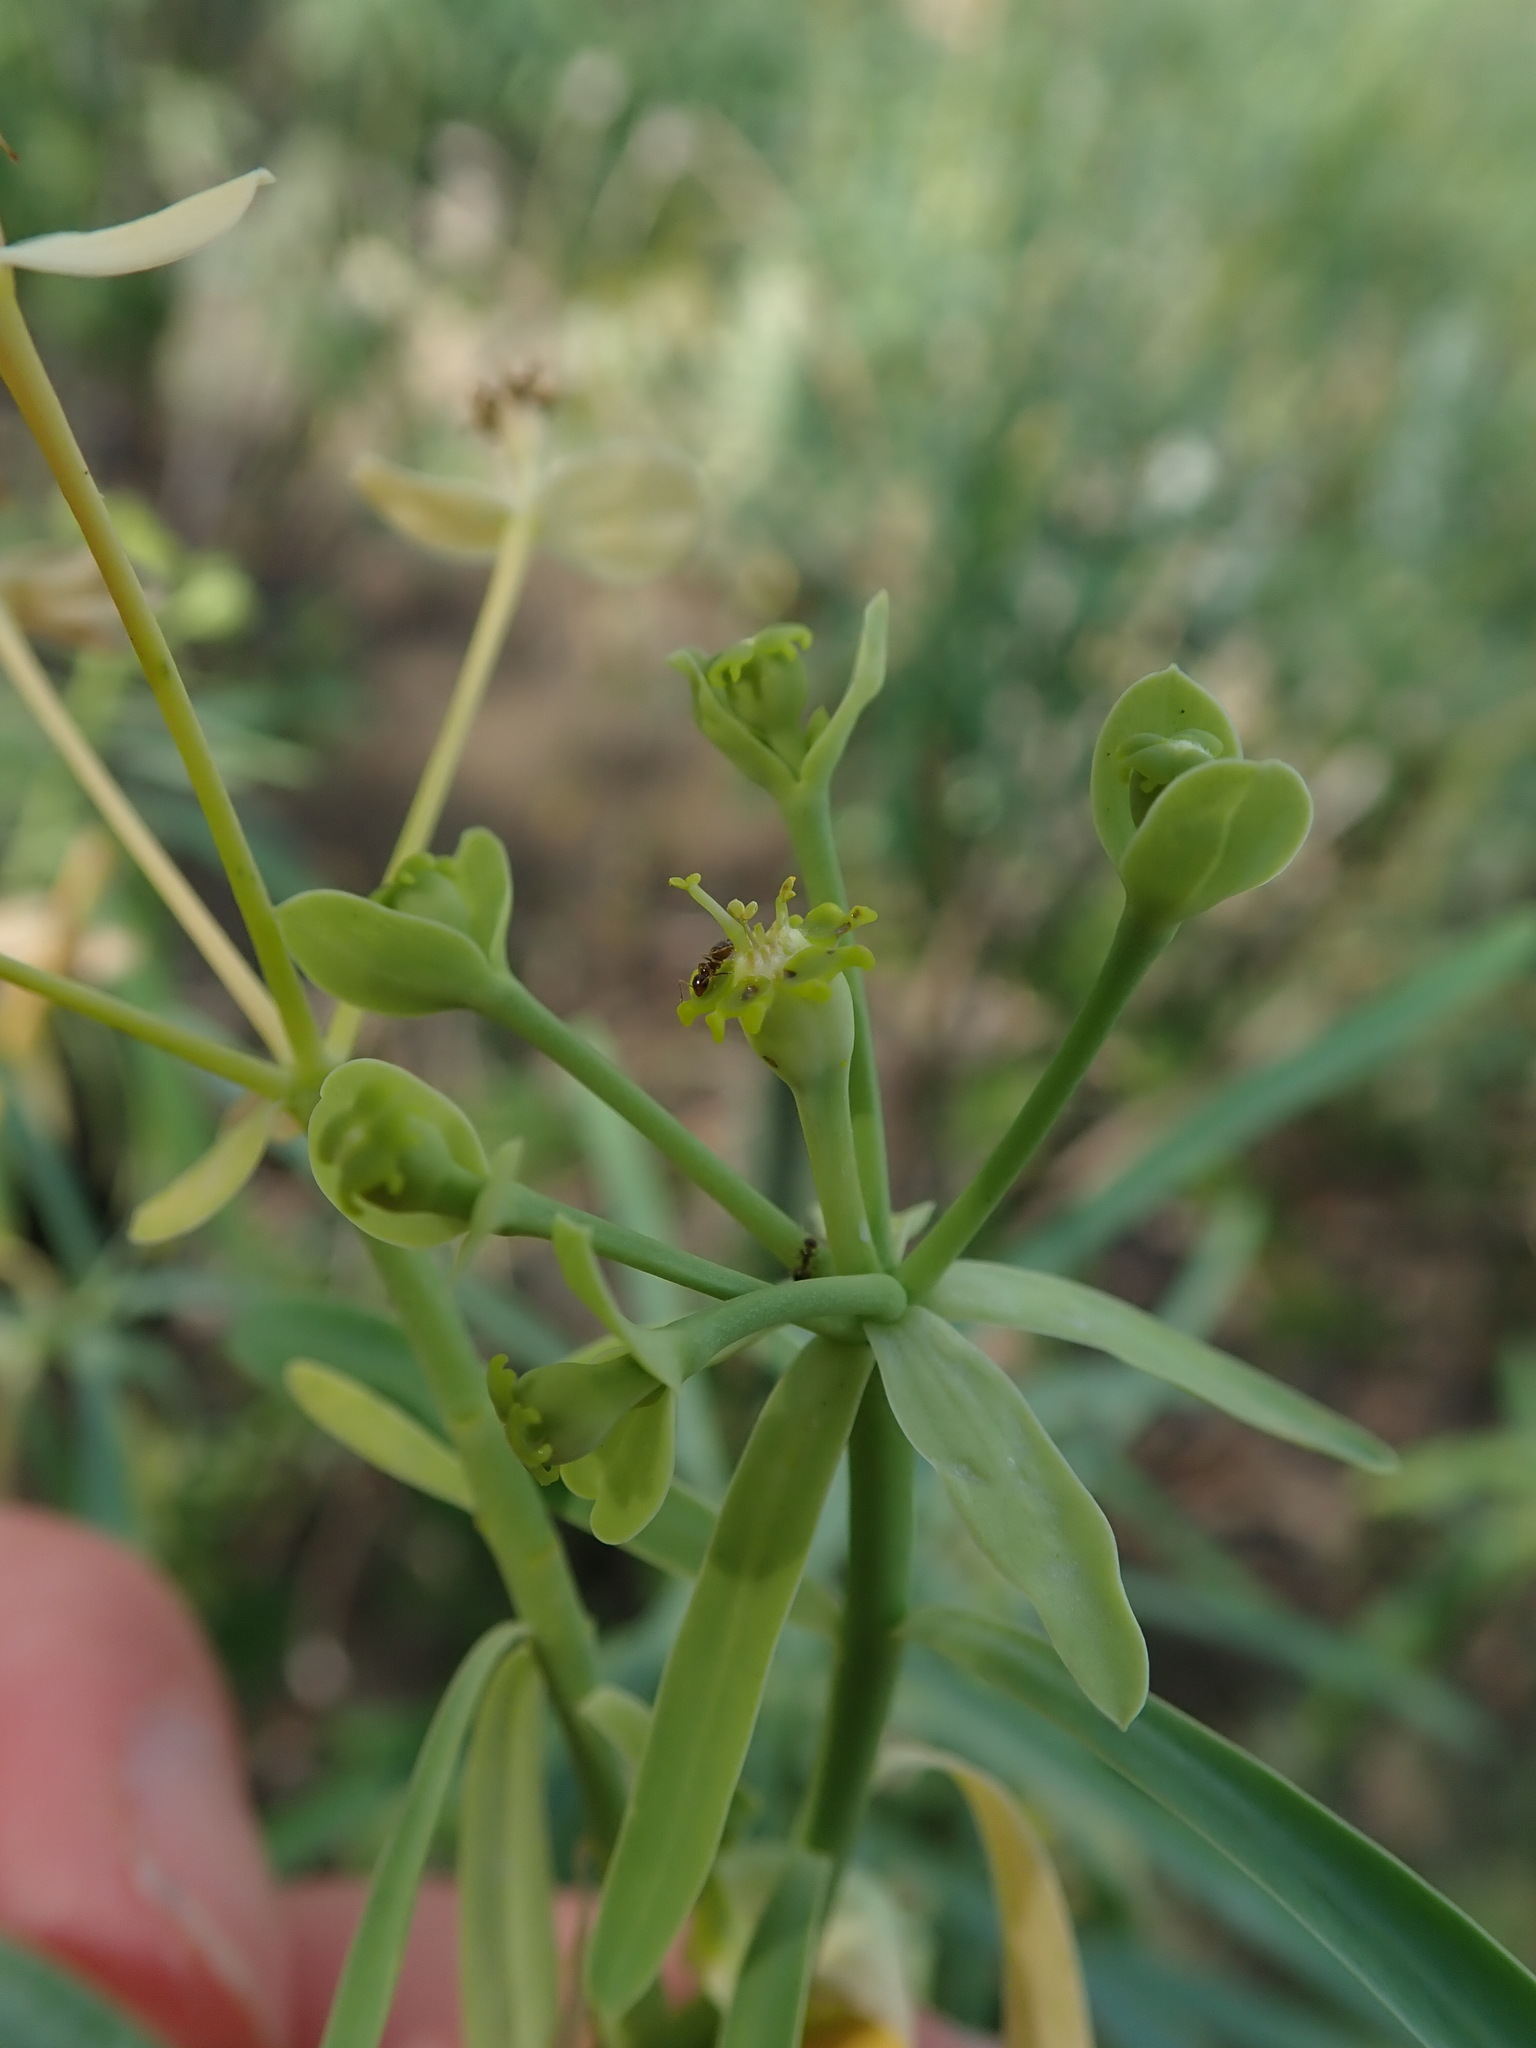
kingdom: Plantae
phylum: Tracheophyta
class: Magnoliopsida
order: Malpighiales
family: Euphorbiaceae
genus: Euphorbia
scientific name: Euphorbia regis-jubae
